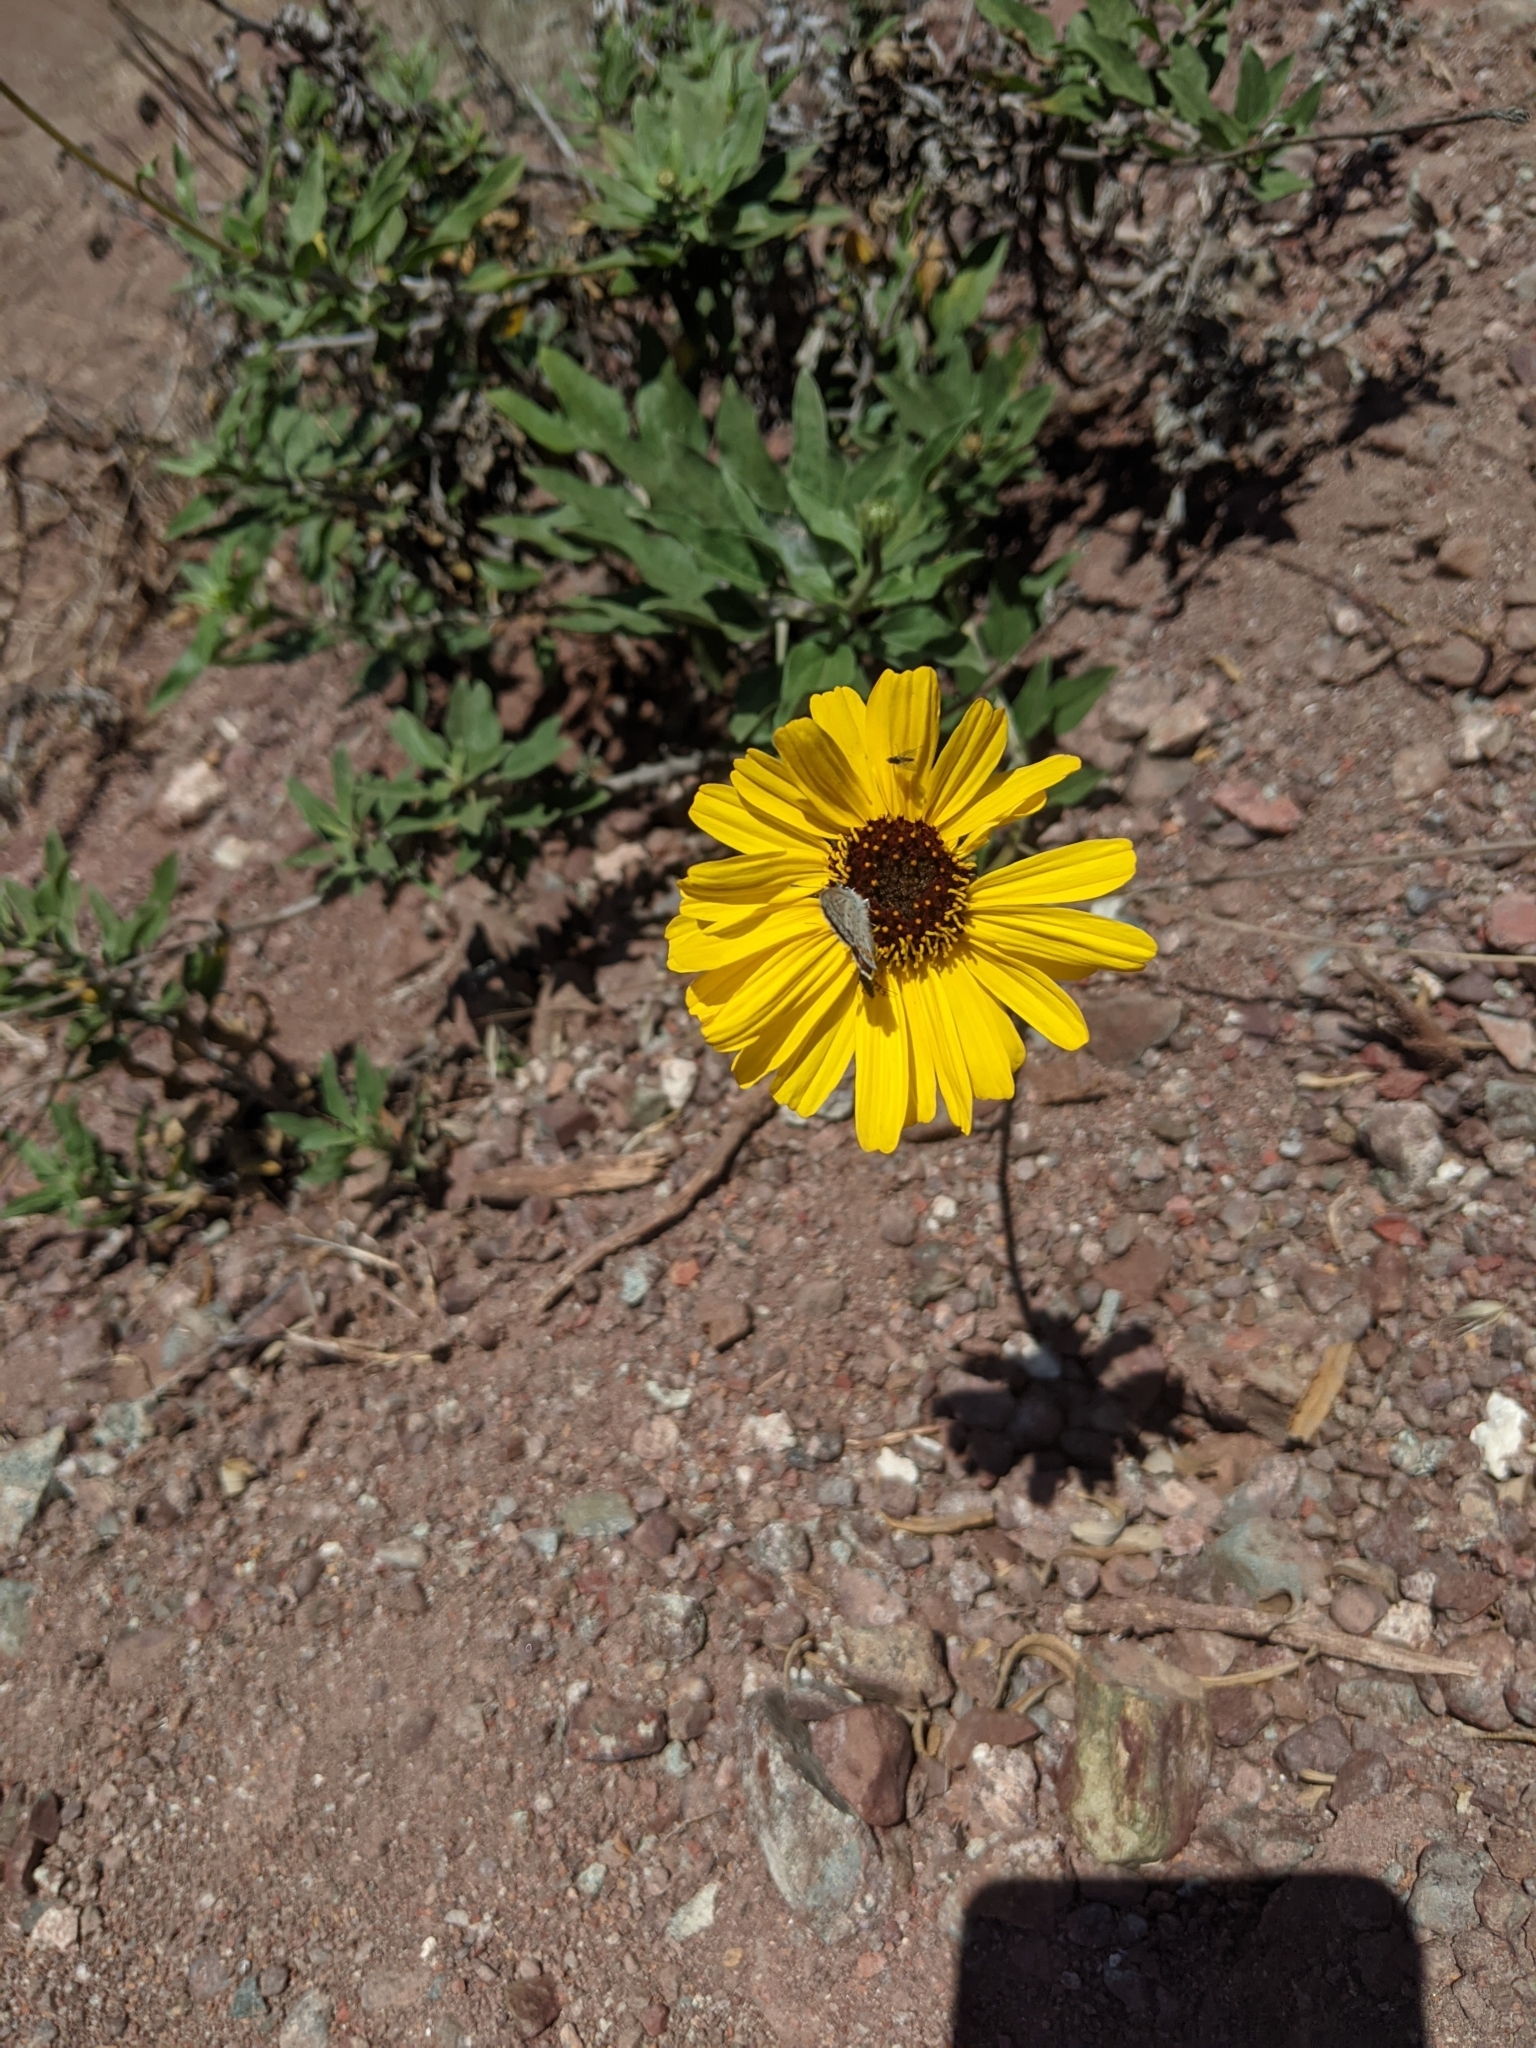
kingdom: Plantae
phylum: Tracheophyta
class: Magnoliopsida
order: Asterales
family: Asteraceae
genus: Encelia
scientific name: Encelia californica
